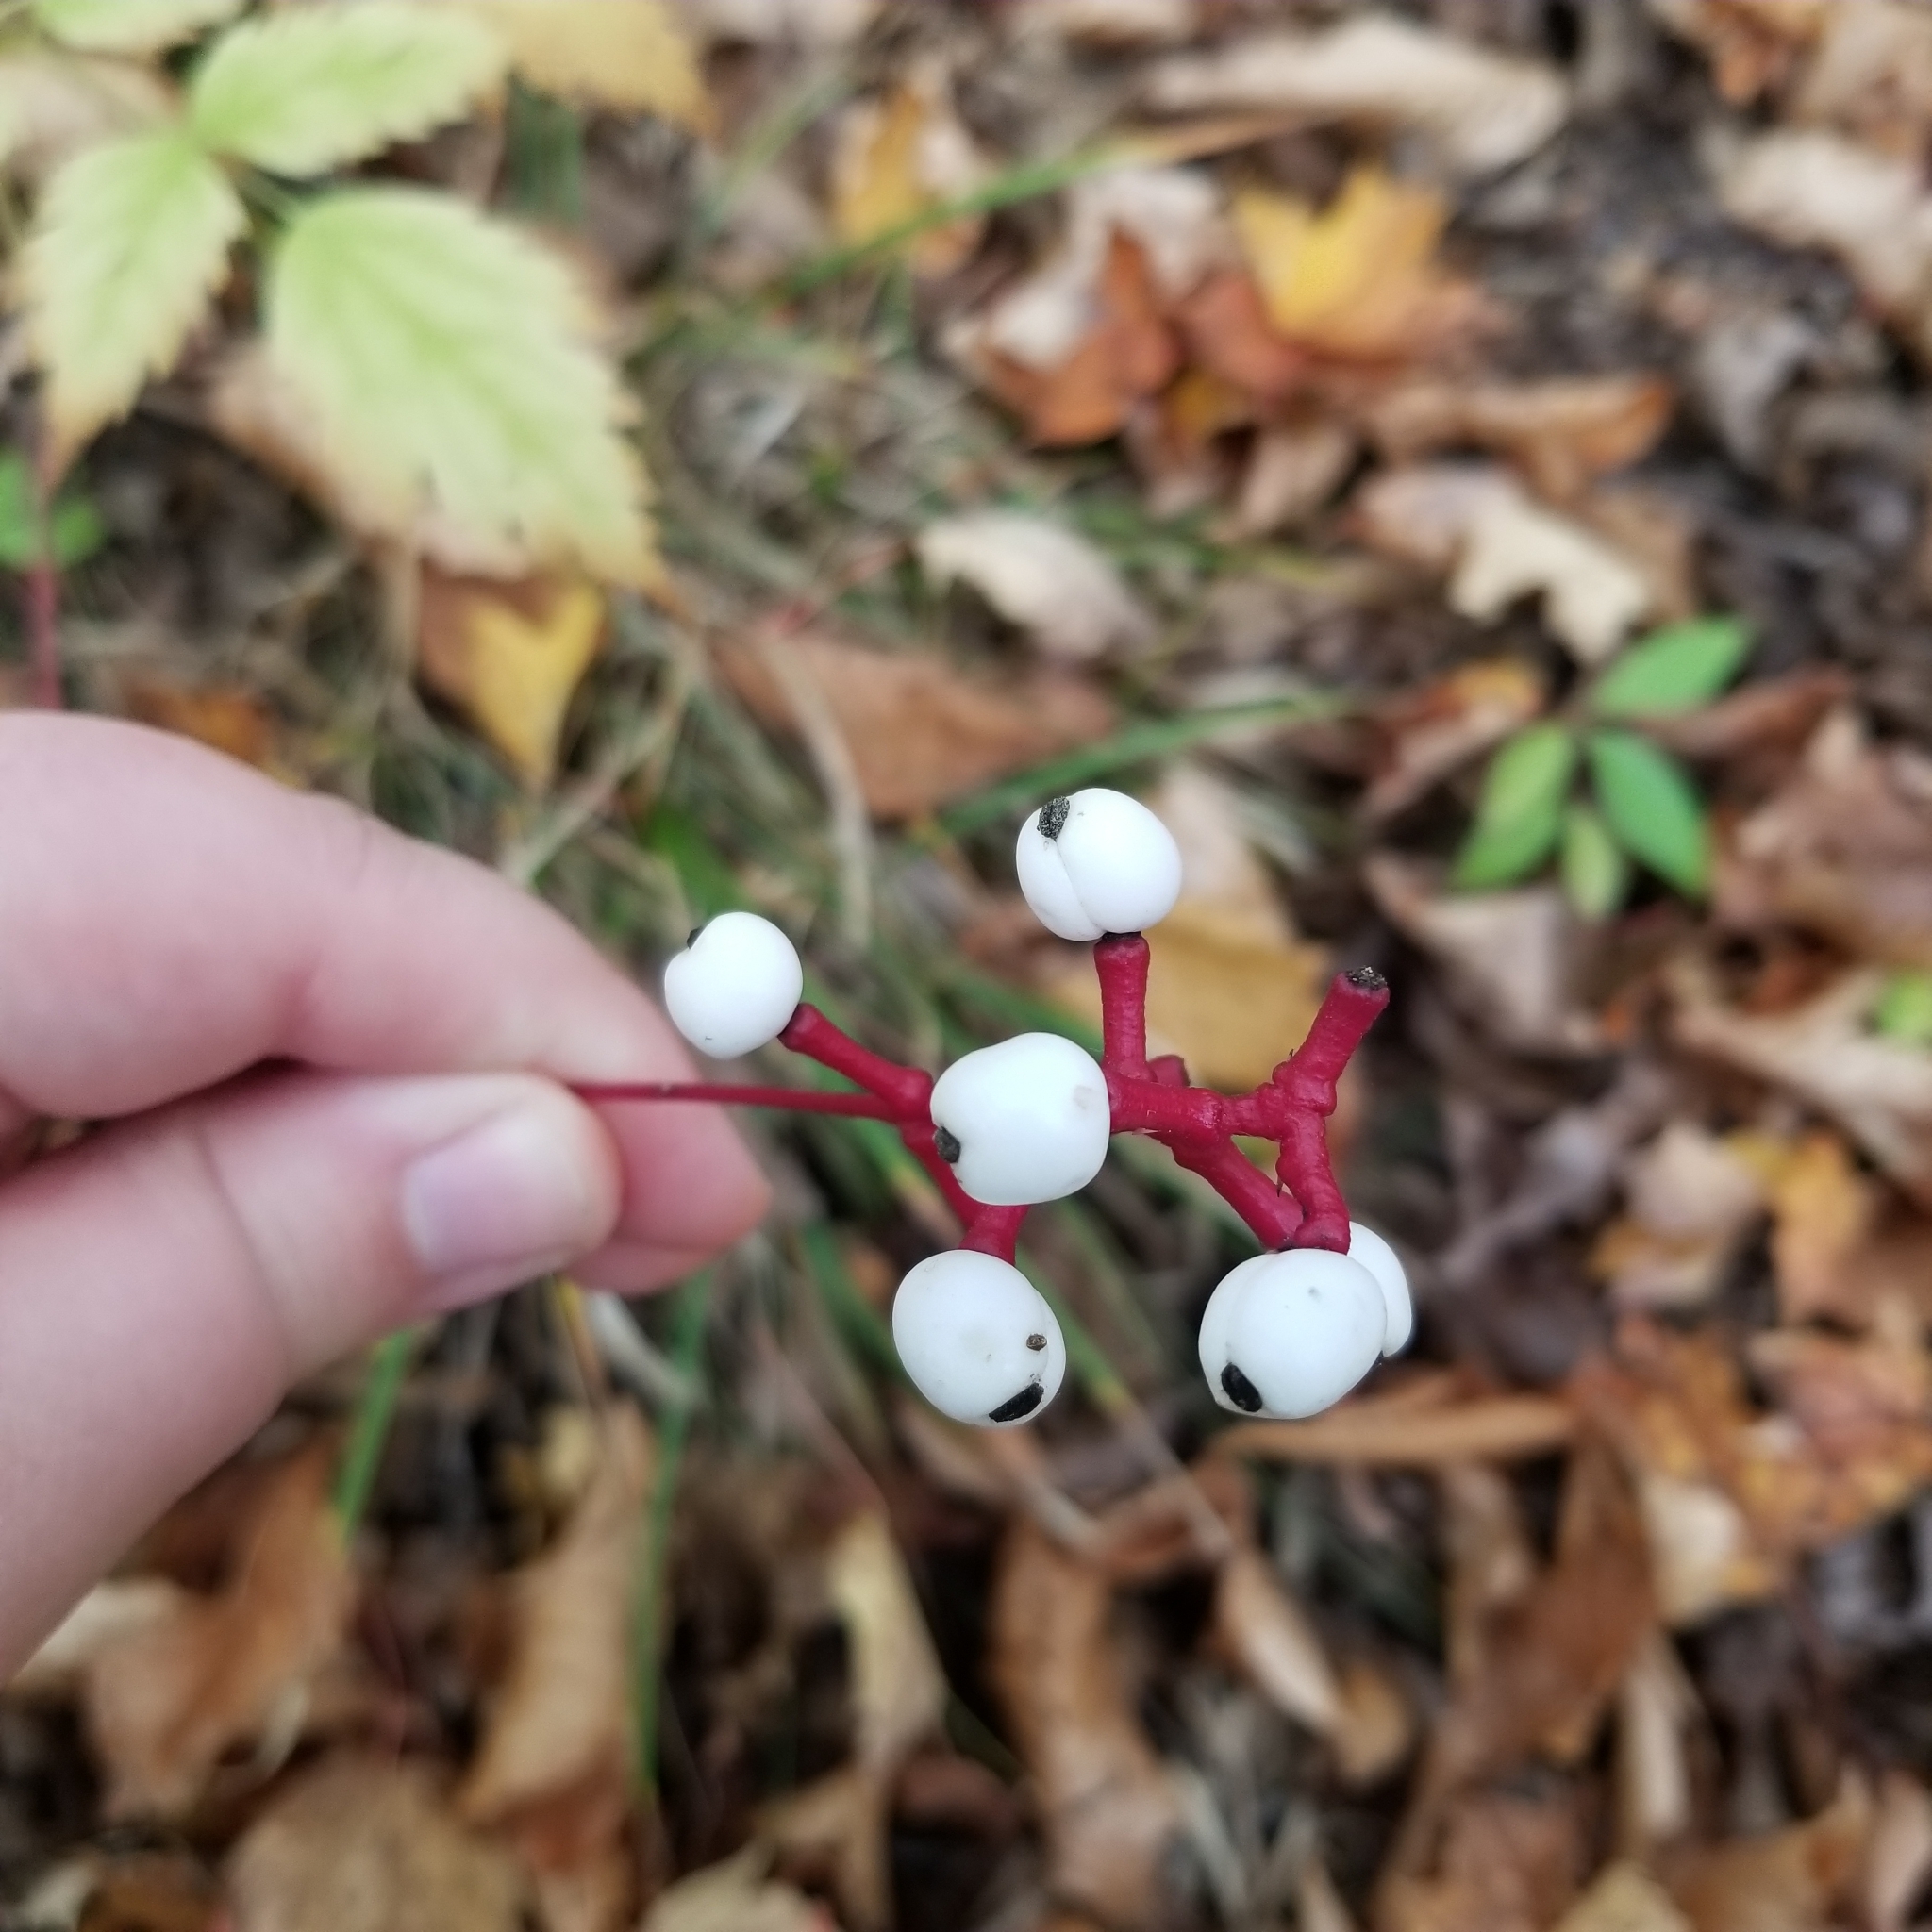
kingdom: Plantae
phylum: Tracheophyta
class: Magnoliopsida
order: Ranunculales
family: Ranunculaceae
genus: Actaea
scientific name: Actaea pachypoda
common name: Doll's-eyes
